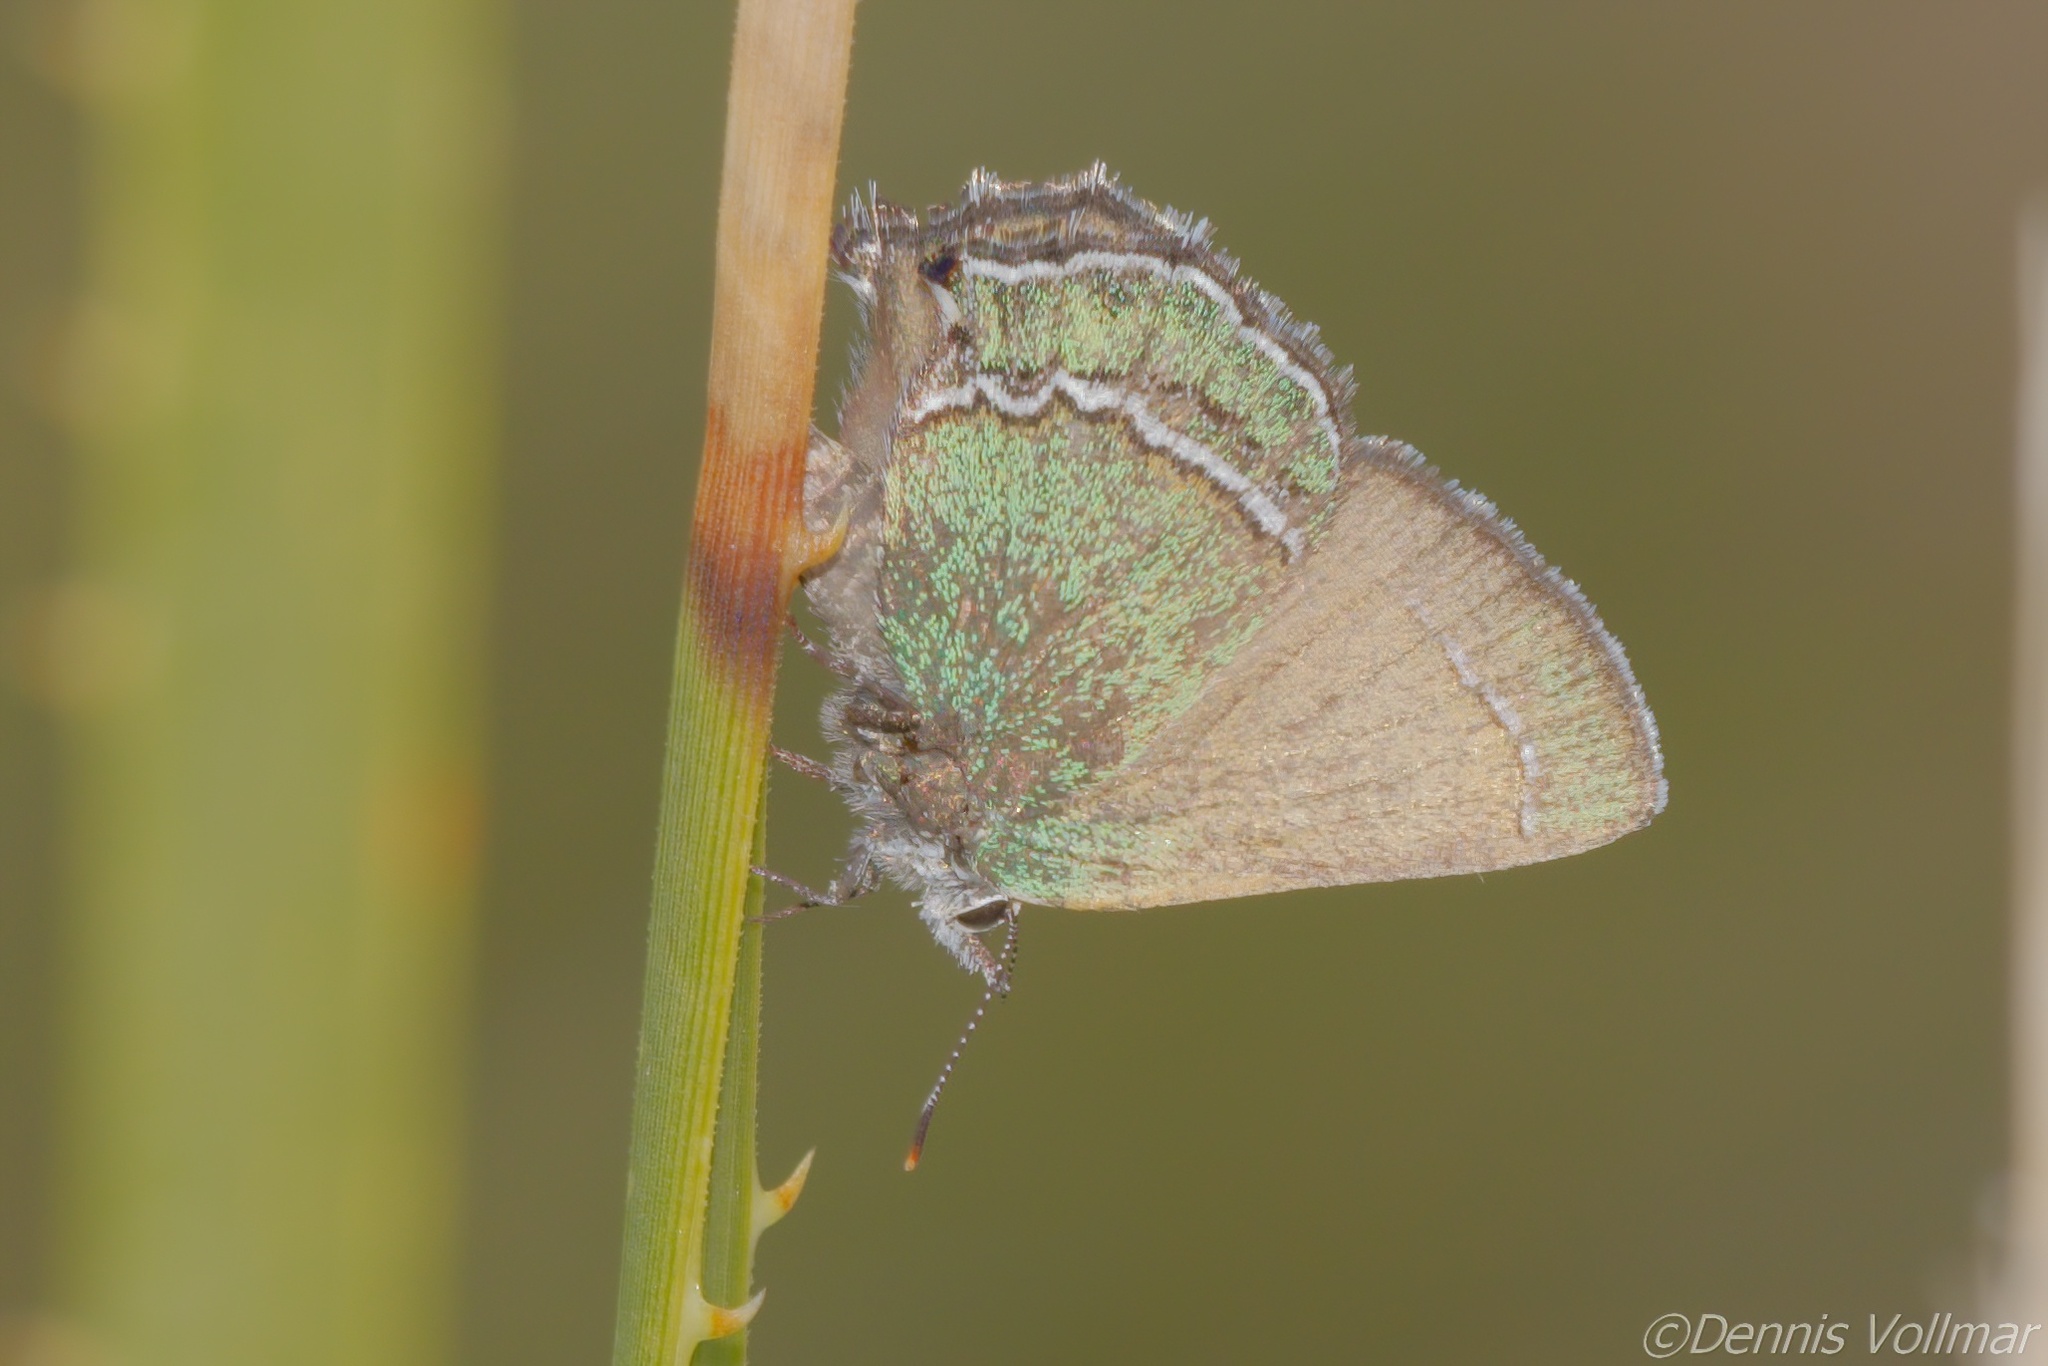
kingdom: Animalia
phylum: Arthropoda
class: Insecta
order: Lepidoptera
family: Lycaenidae
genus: Sandia
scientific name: Sandia mcfarlandi
